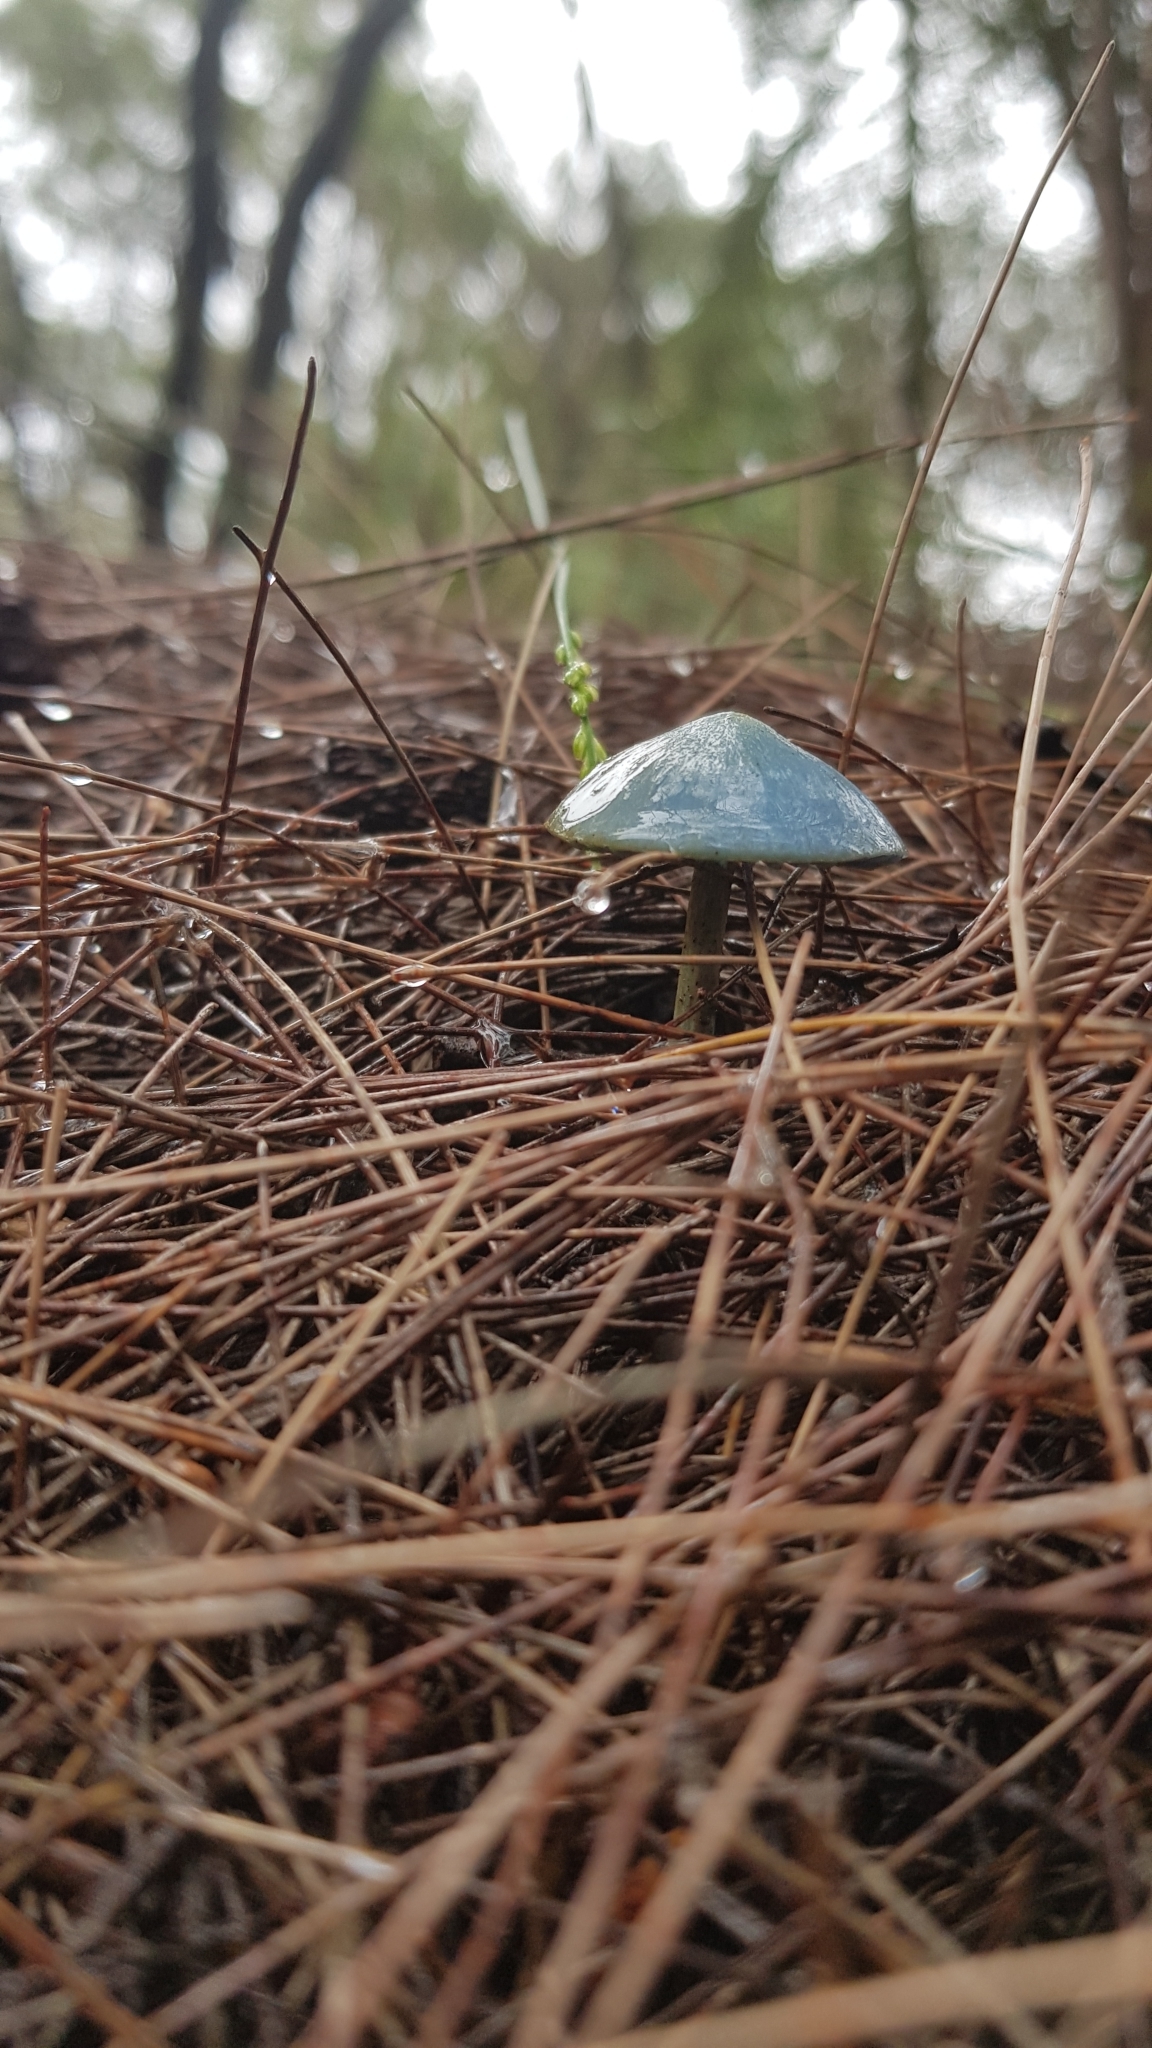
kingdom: Fungi
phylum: Basidiomycota
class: Agaricomycetes
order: Agaricales
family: Entolomataceae
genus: Entoloma
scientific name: Entoloma virescens
